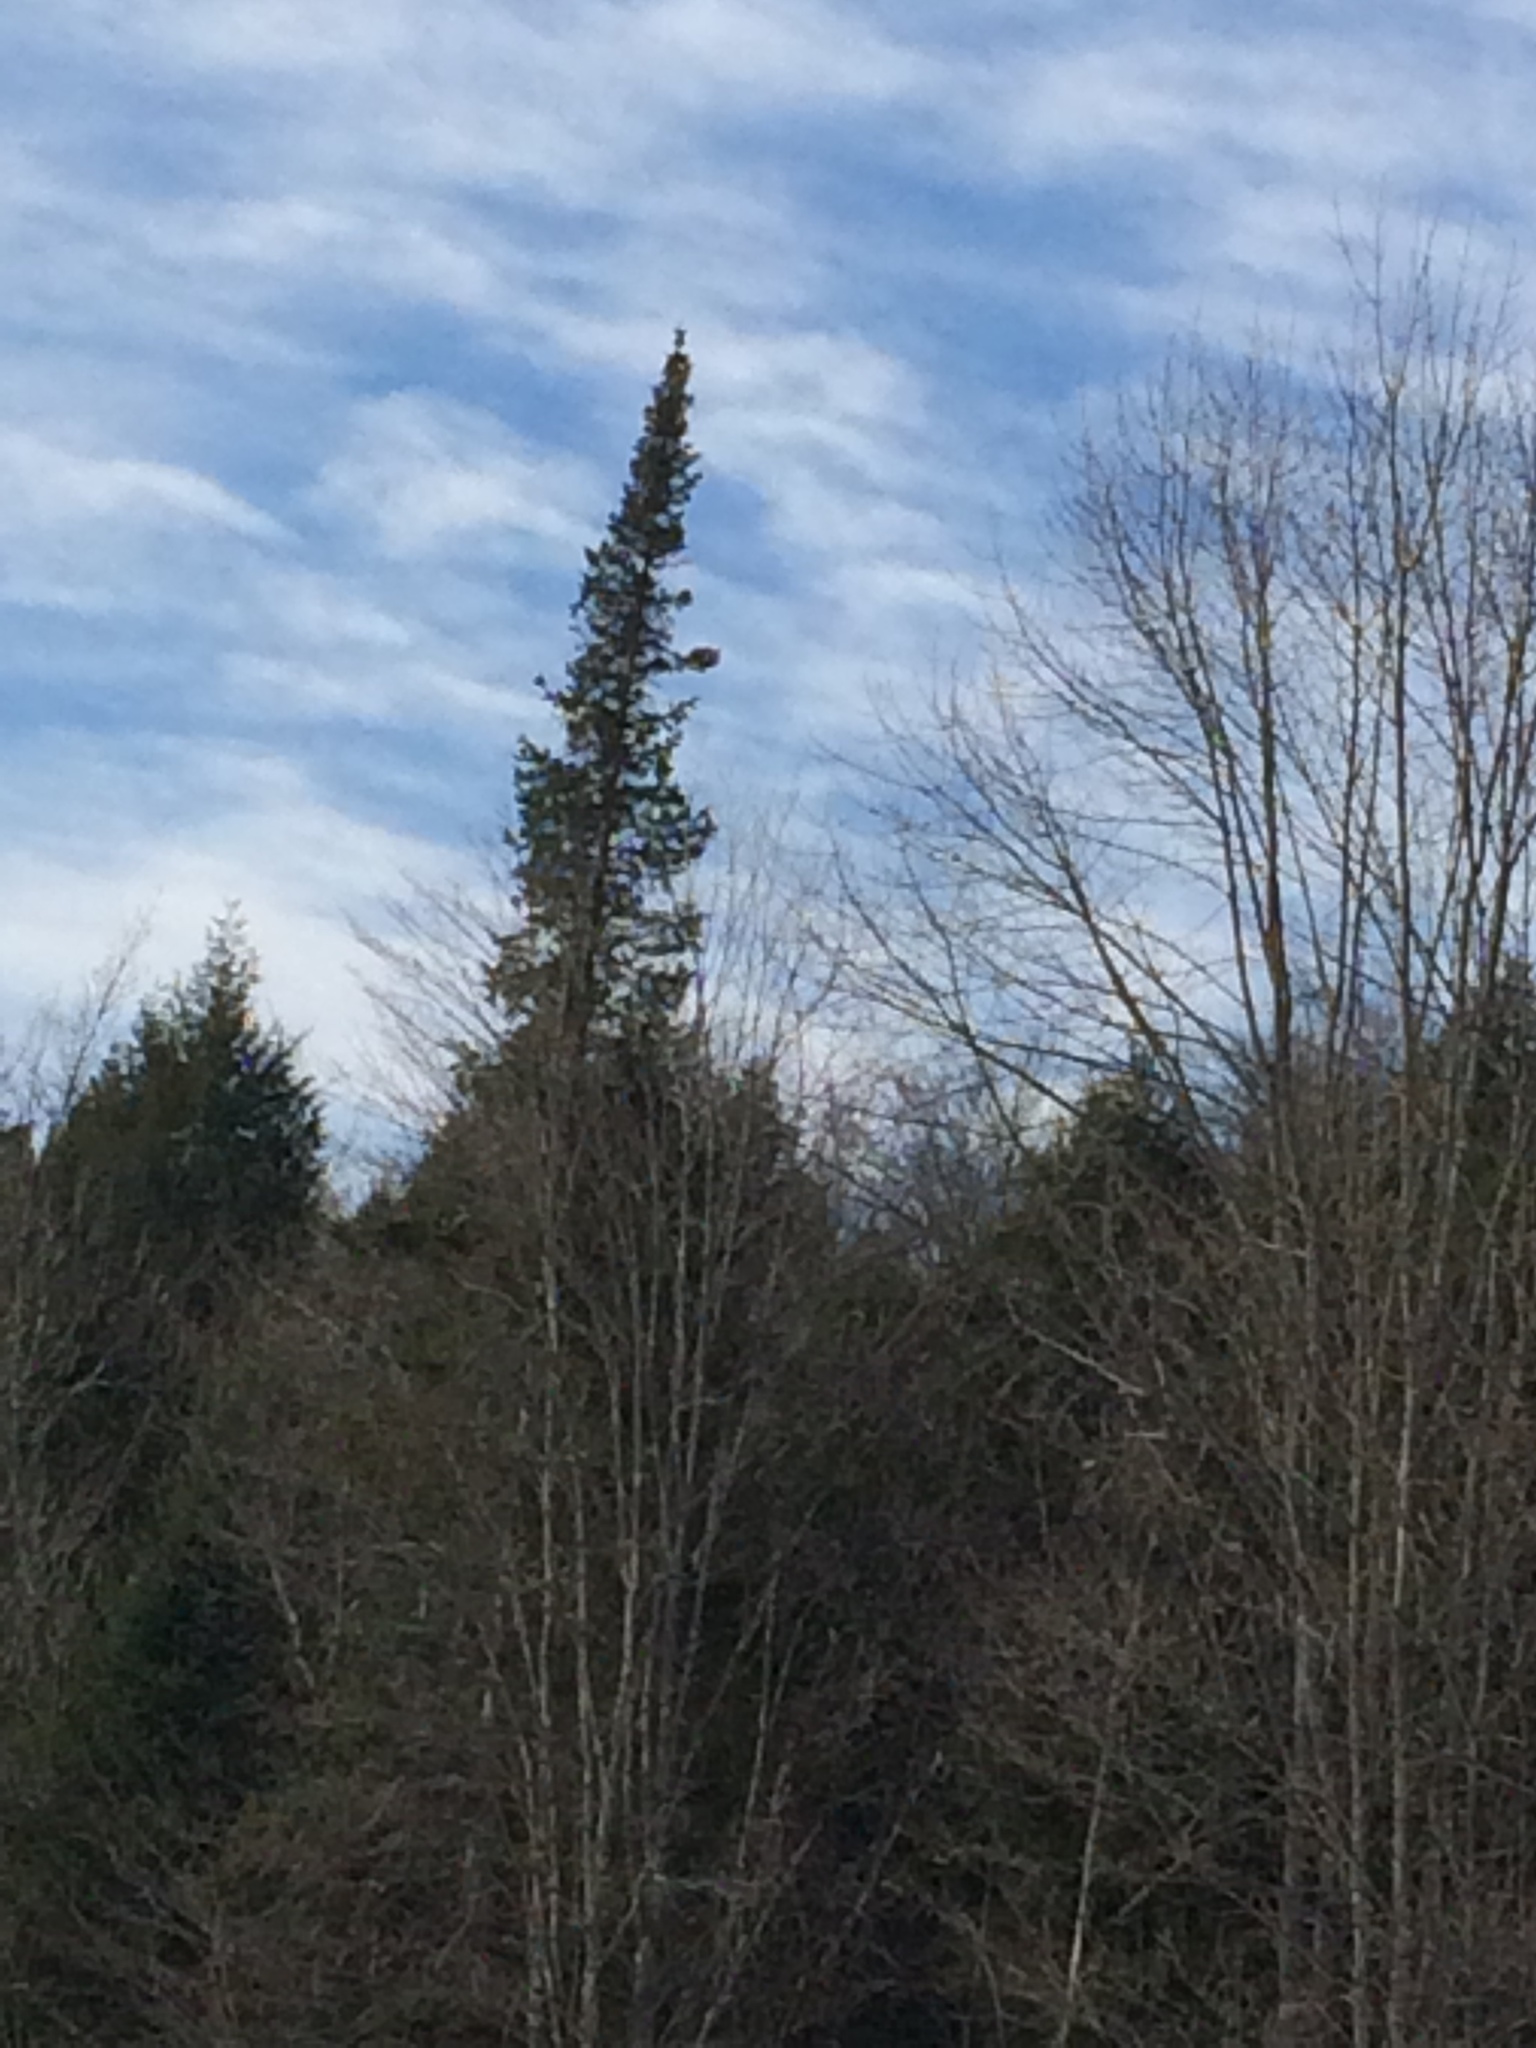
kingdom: Plantae
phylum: Tracheophyta
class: Pinopsida
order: Pinales
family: Pinaceae
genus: Abies
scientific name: Abies balsamea
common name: Balsam fir
